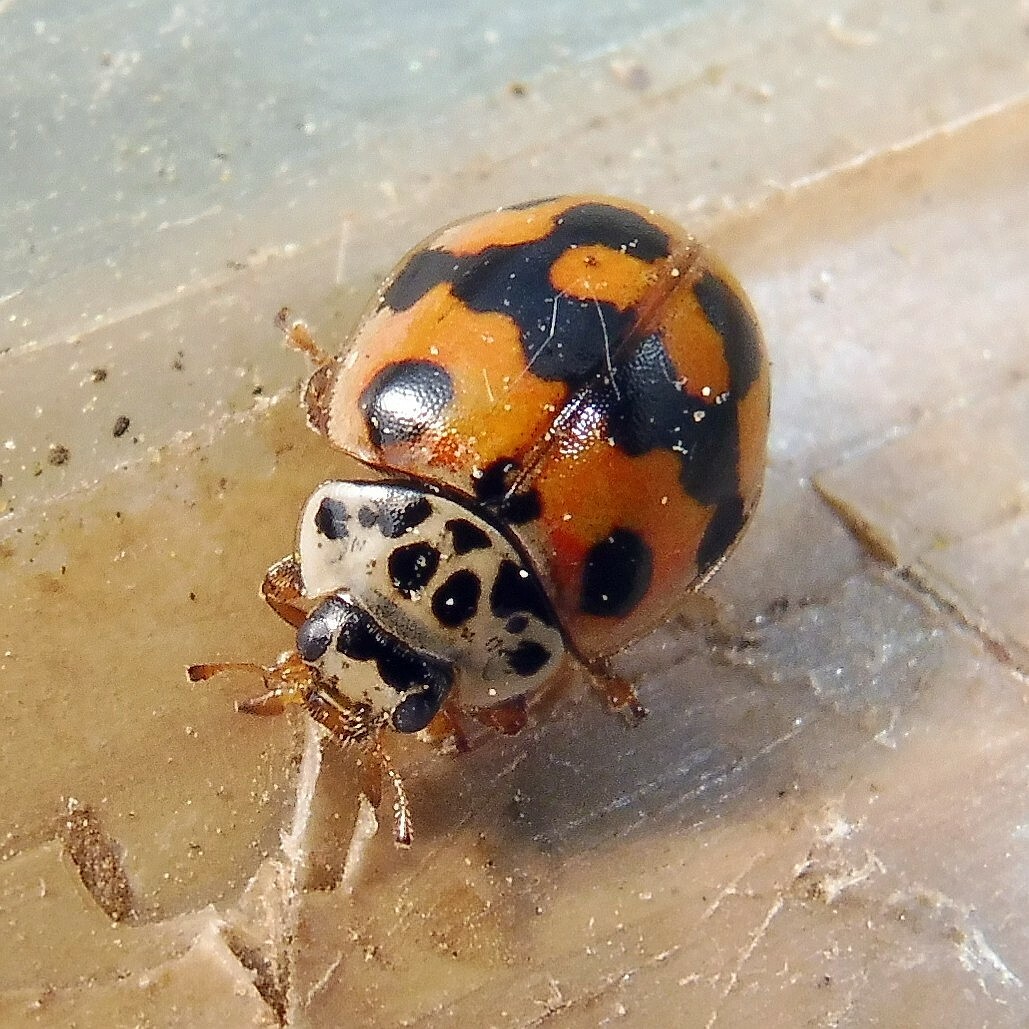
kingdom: Animalia
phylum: Arthropoda
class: Insecta
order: Coleoptera
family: Coccinellidae
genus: Adalia
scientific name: Adalia decempunctata
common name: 10-spot ladybird
